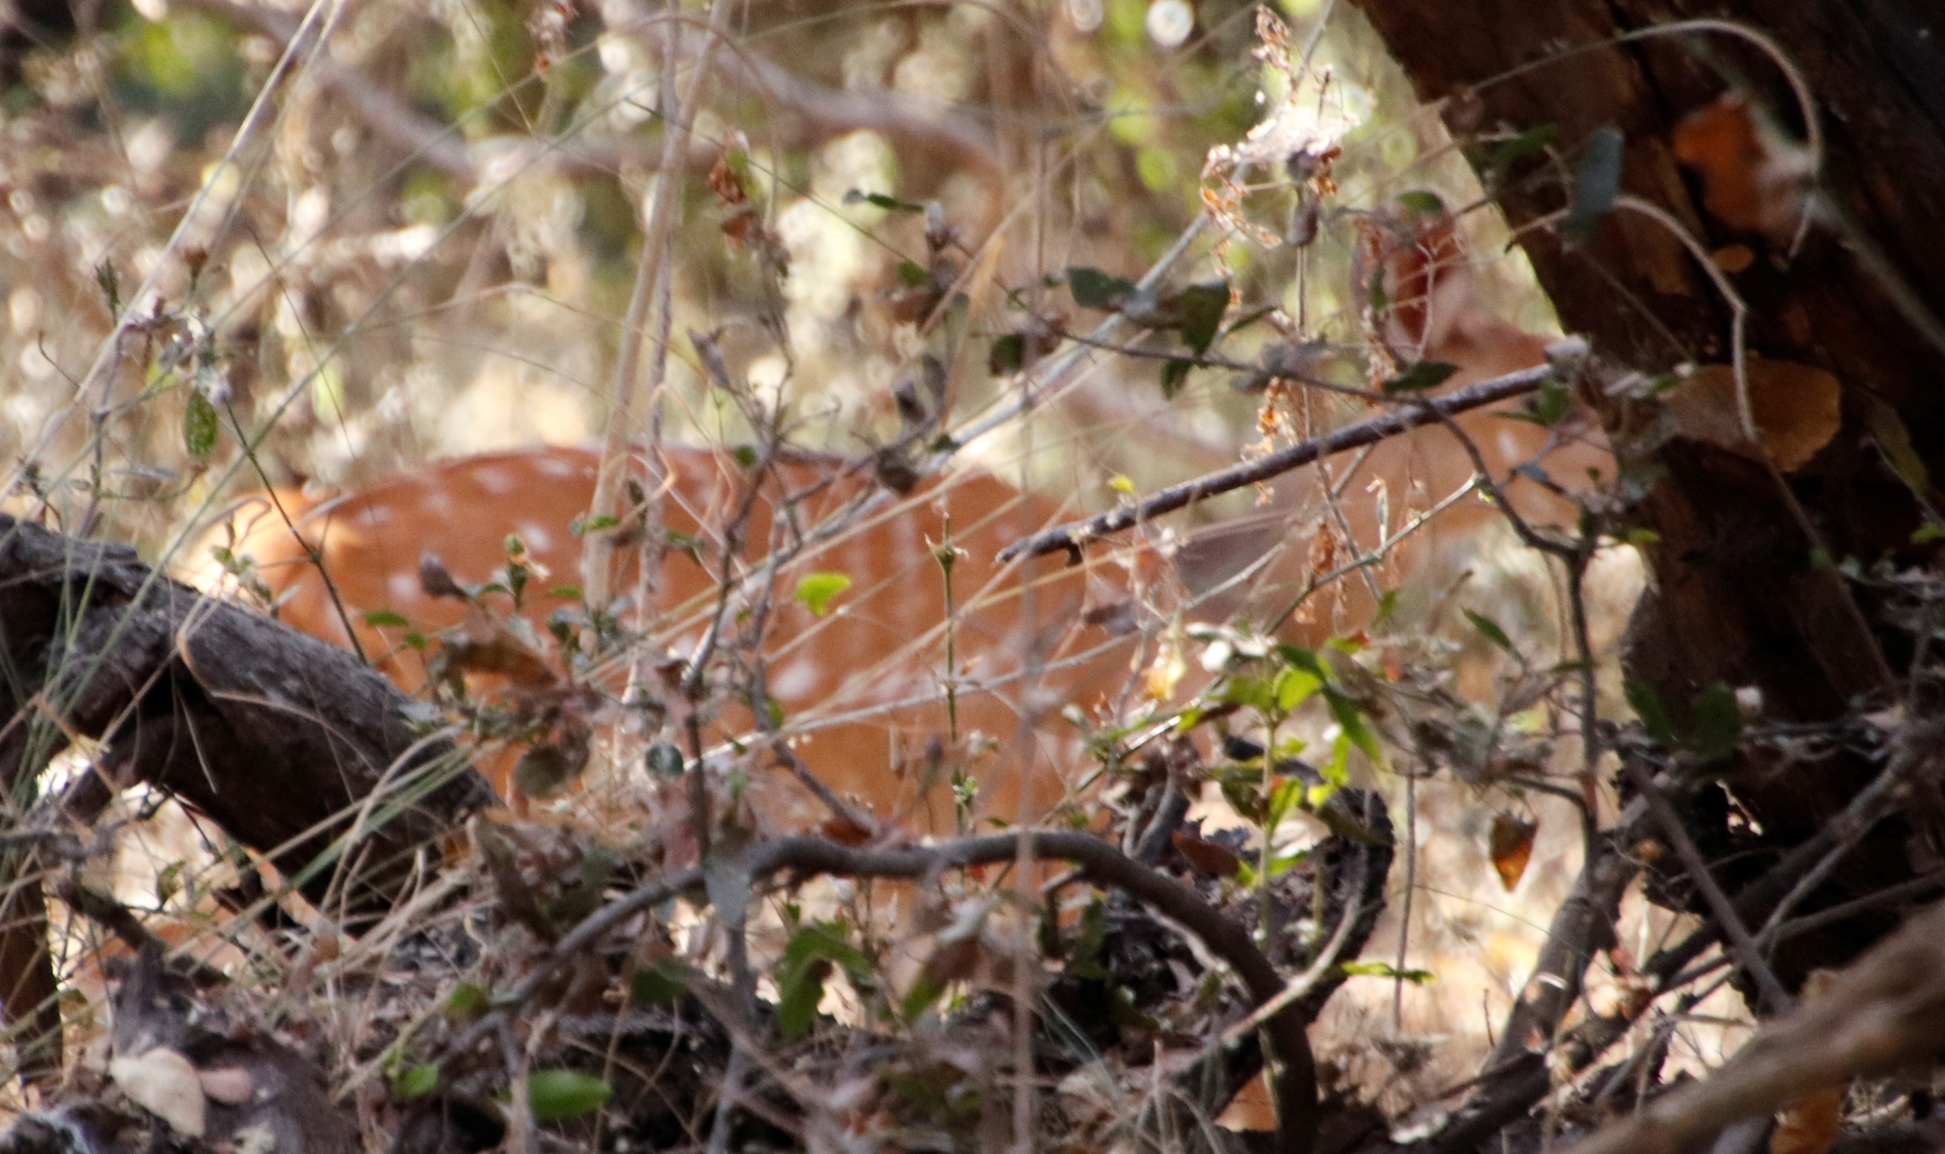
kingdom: Animalia
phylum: Chordata
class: Mammalia
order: Artiodactyla
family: Bovidae
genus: Tragelaphus
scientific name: Tragelaphus scriptus
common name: Bushbuck
